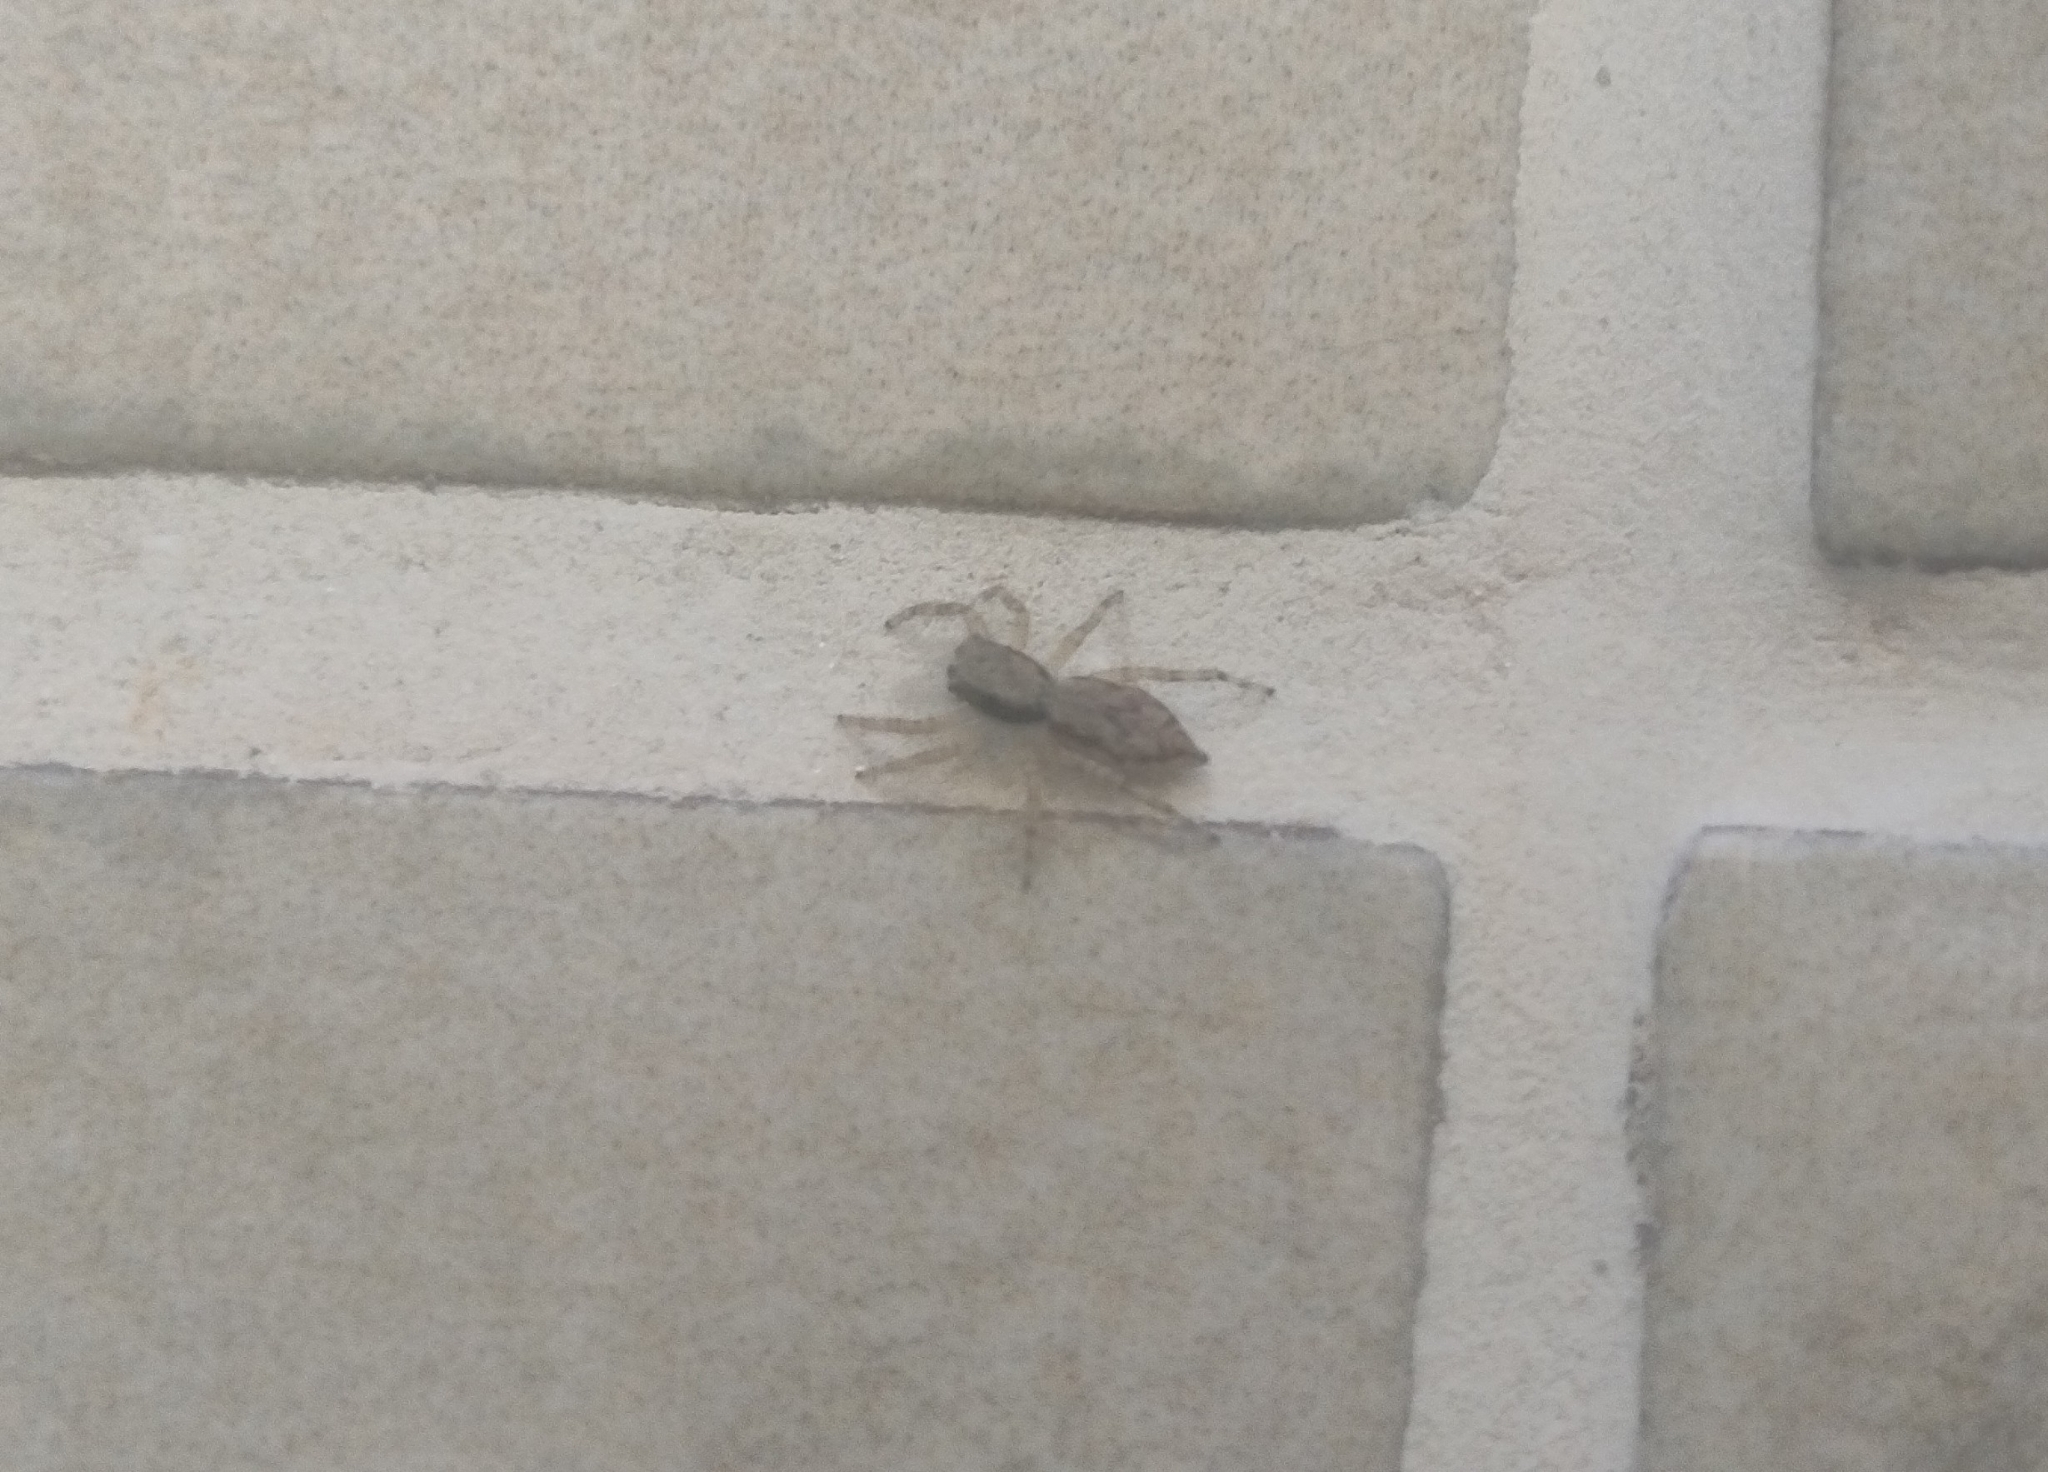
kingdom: Animalia
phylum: Arthropoda
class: Arachnida
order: Araneae
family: Salticidae
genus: Menemerus
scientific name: Menemerus bivittatus
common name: Gray wall jumper
